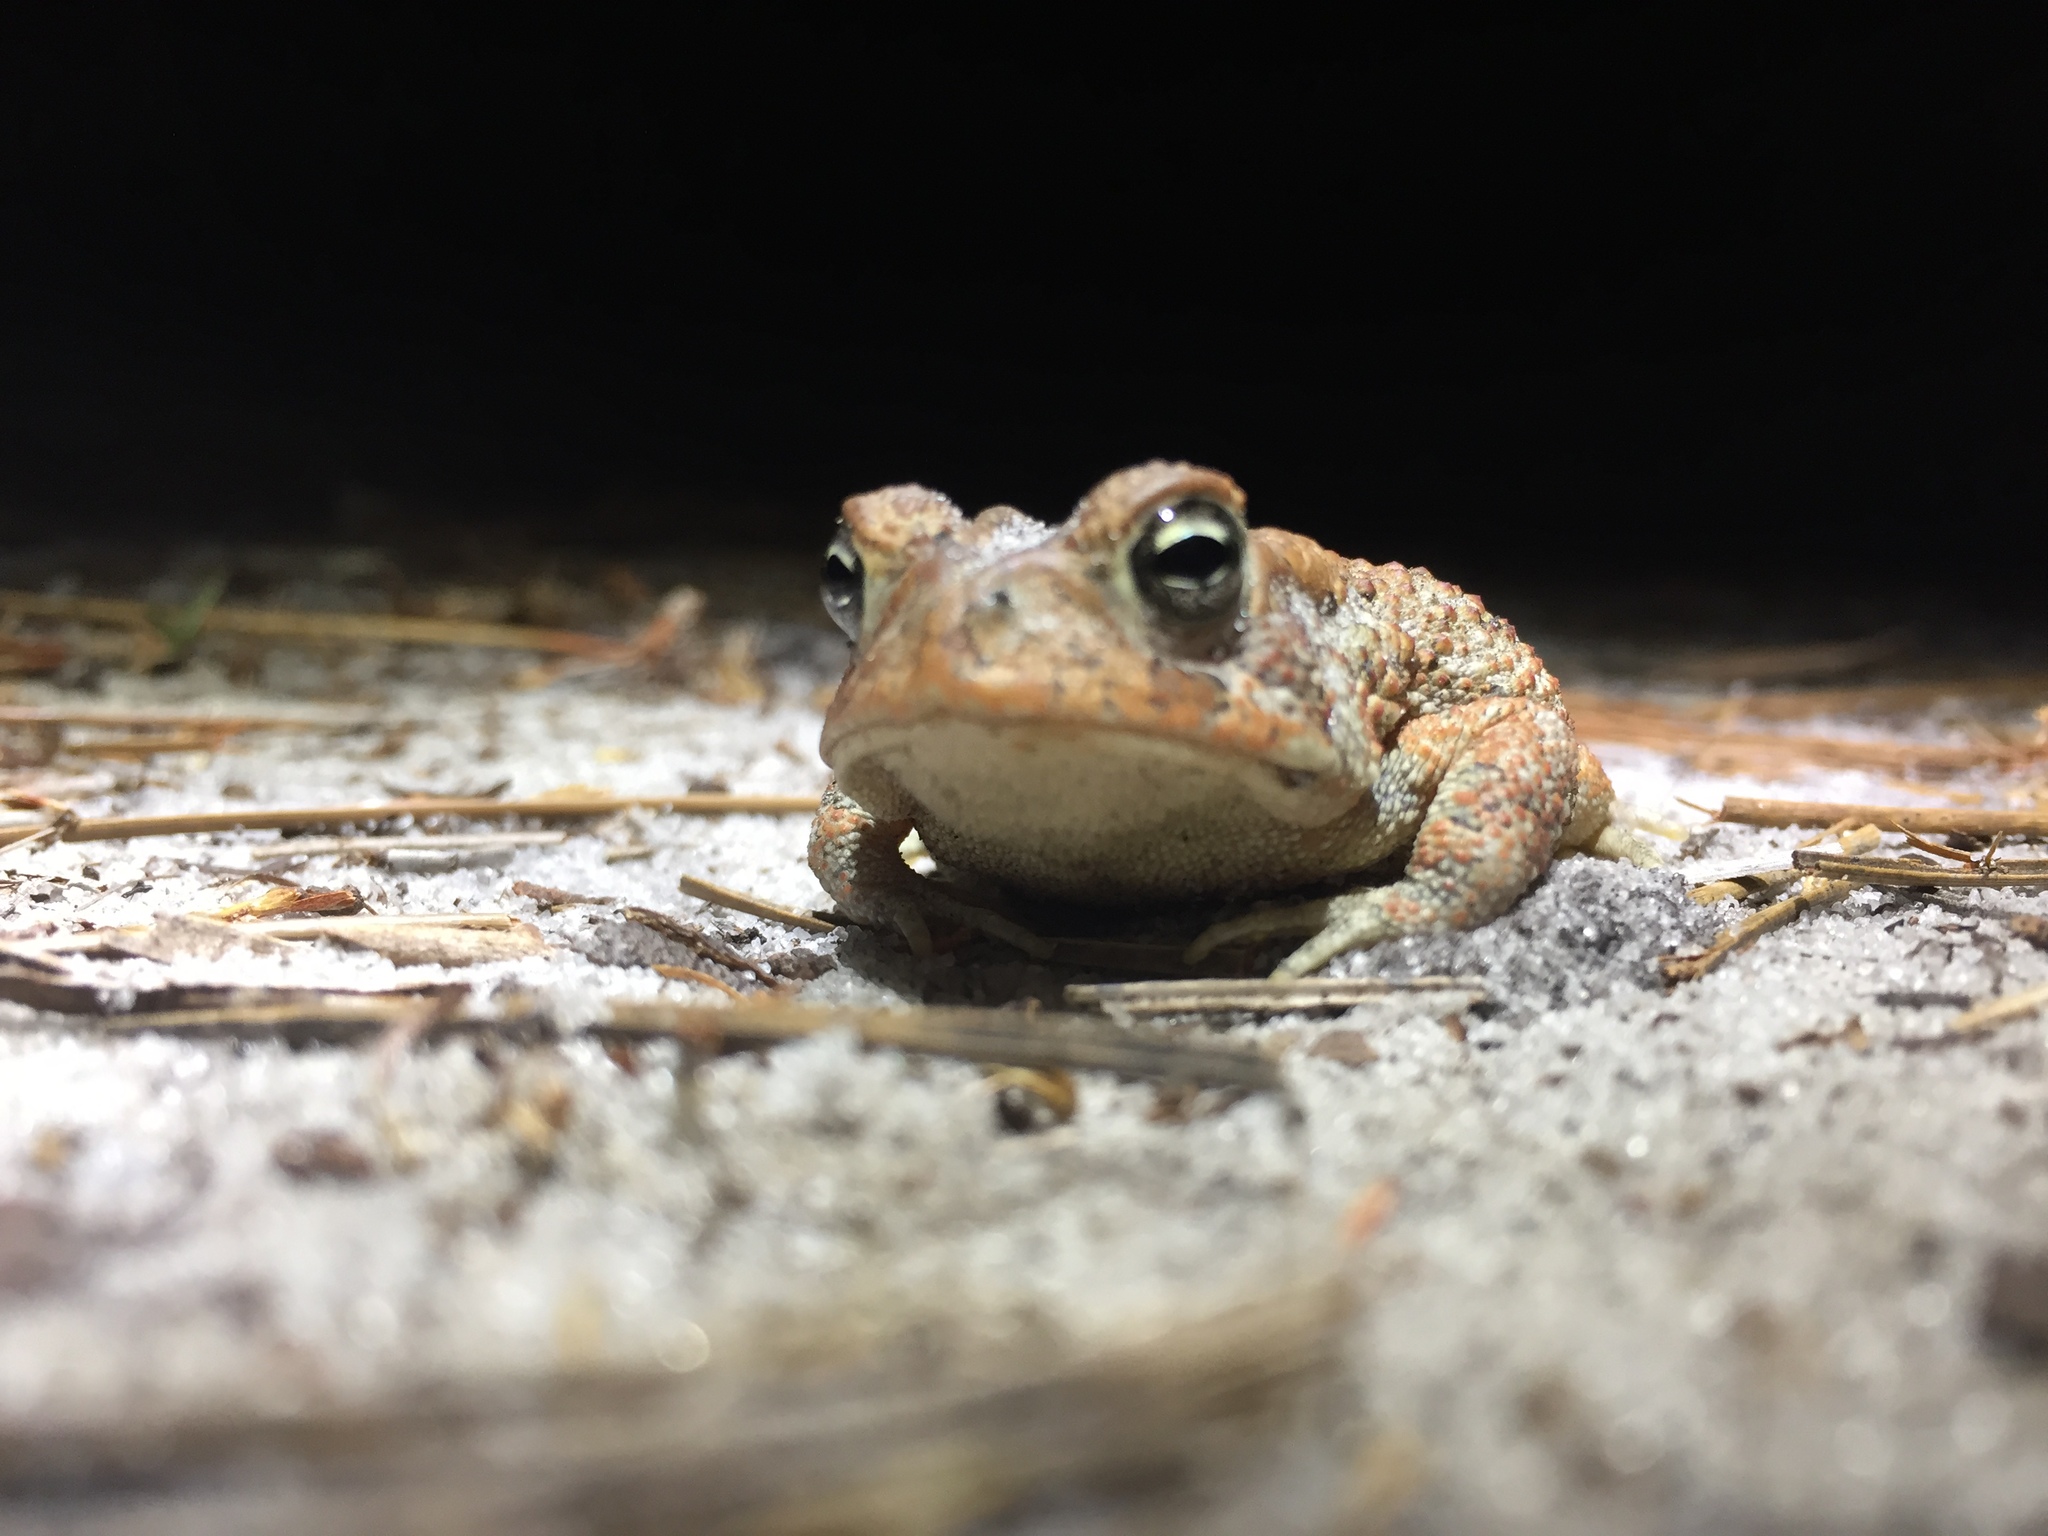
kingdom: Animalia
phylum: Chordata
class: Amphibia
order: Anura
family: Bufonidae
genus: Anaxyrus
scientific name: Anaxyrus terrestris
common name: Southern toad
